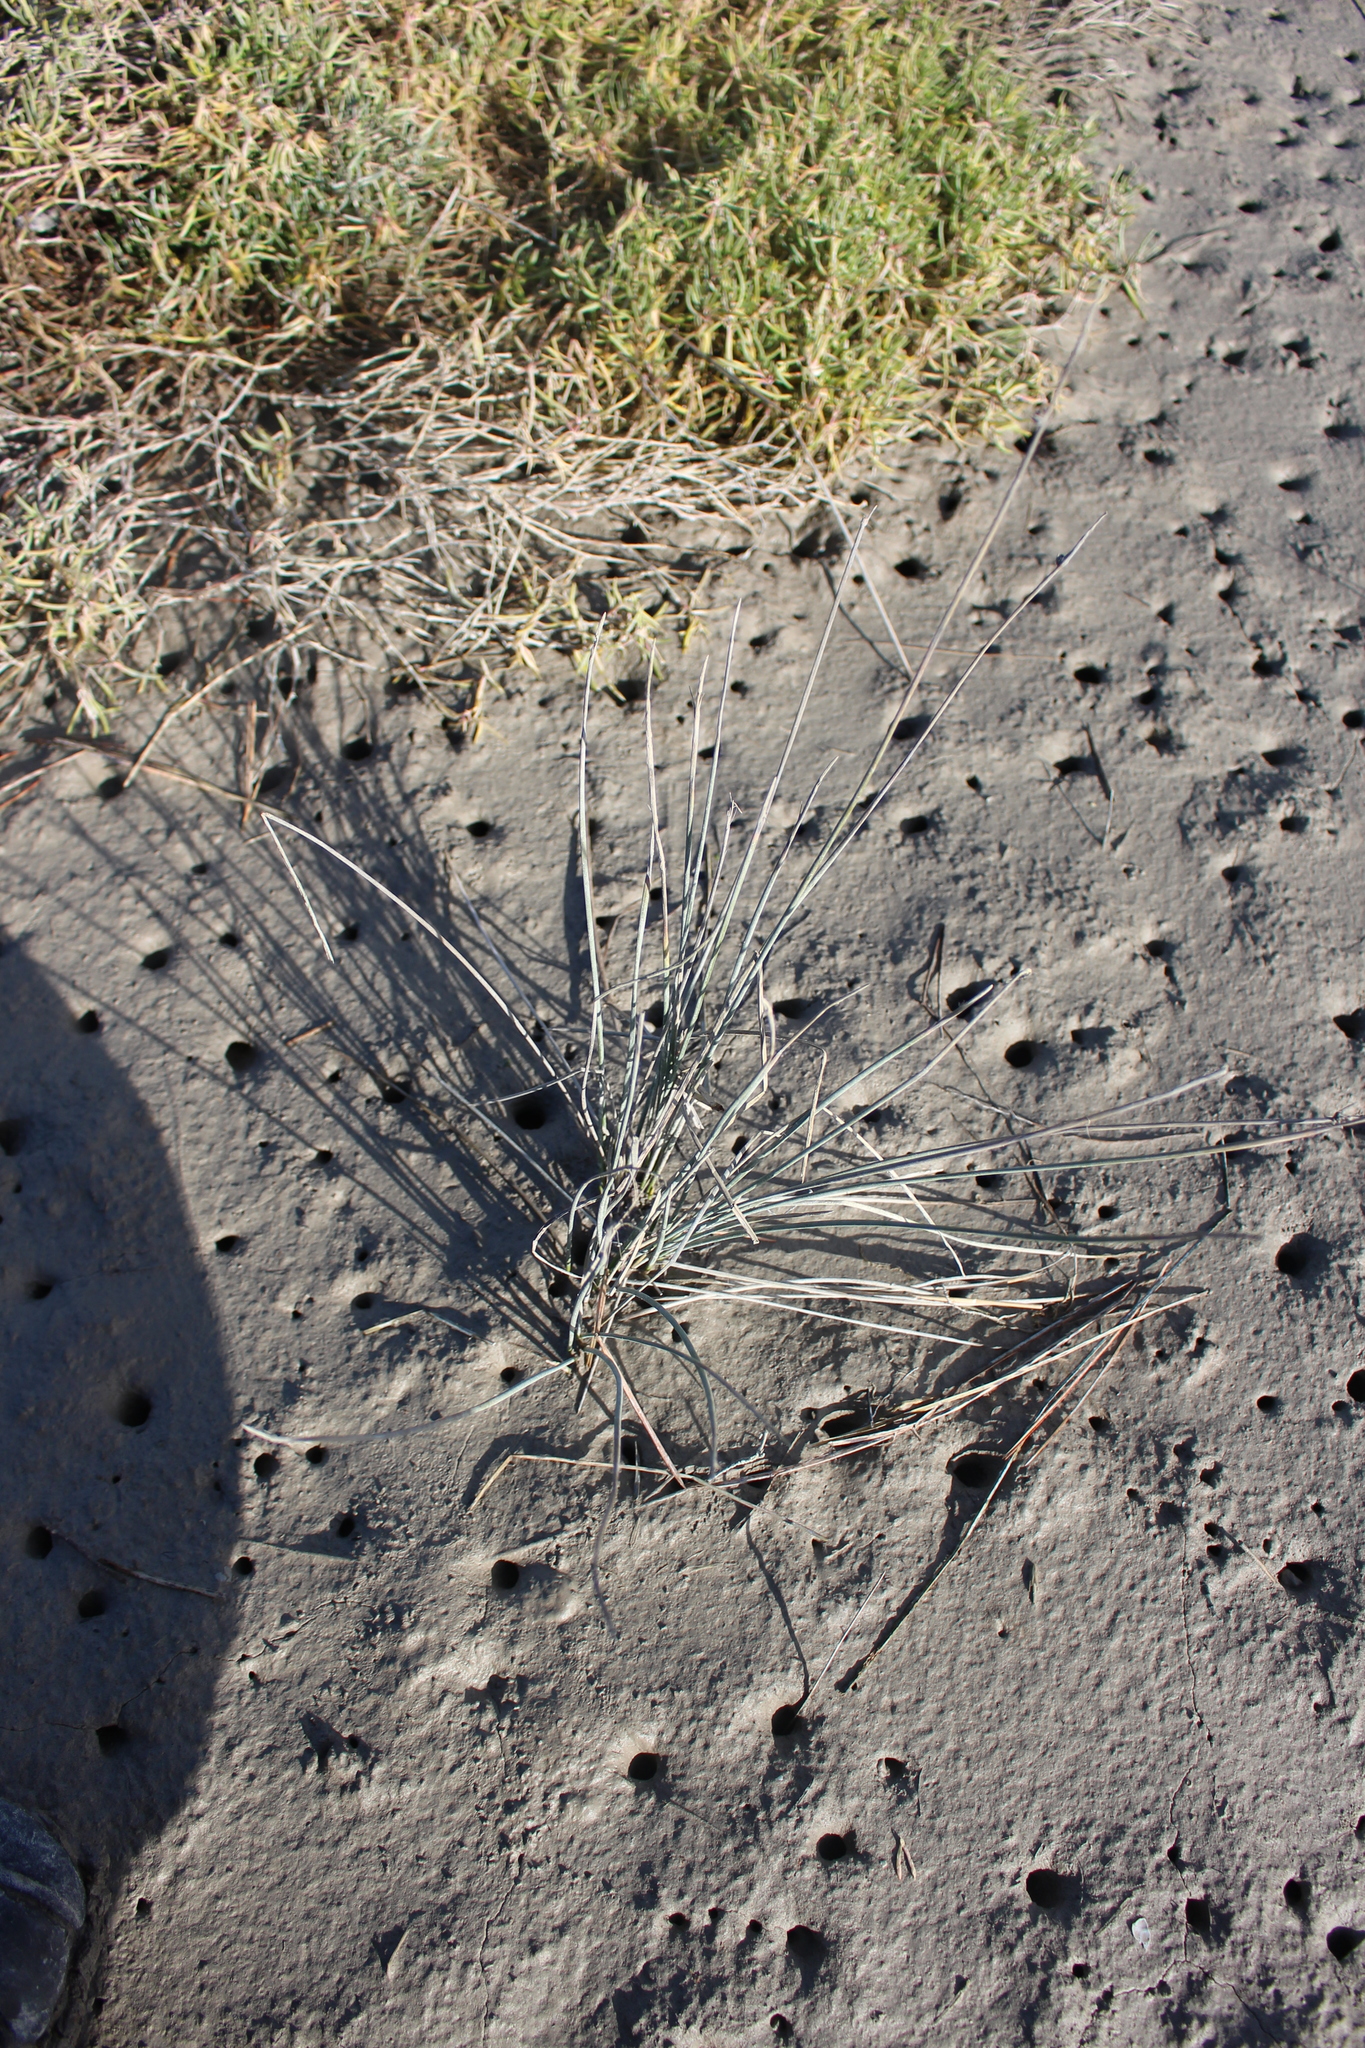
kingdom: Plantae
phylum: Tracheophyta
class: Liliopsida
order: Poales
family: Cyperaceae
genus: Schoenoplectus
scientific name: Schoenoplectus pungens
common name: Sharp club-rush
